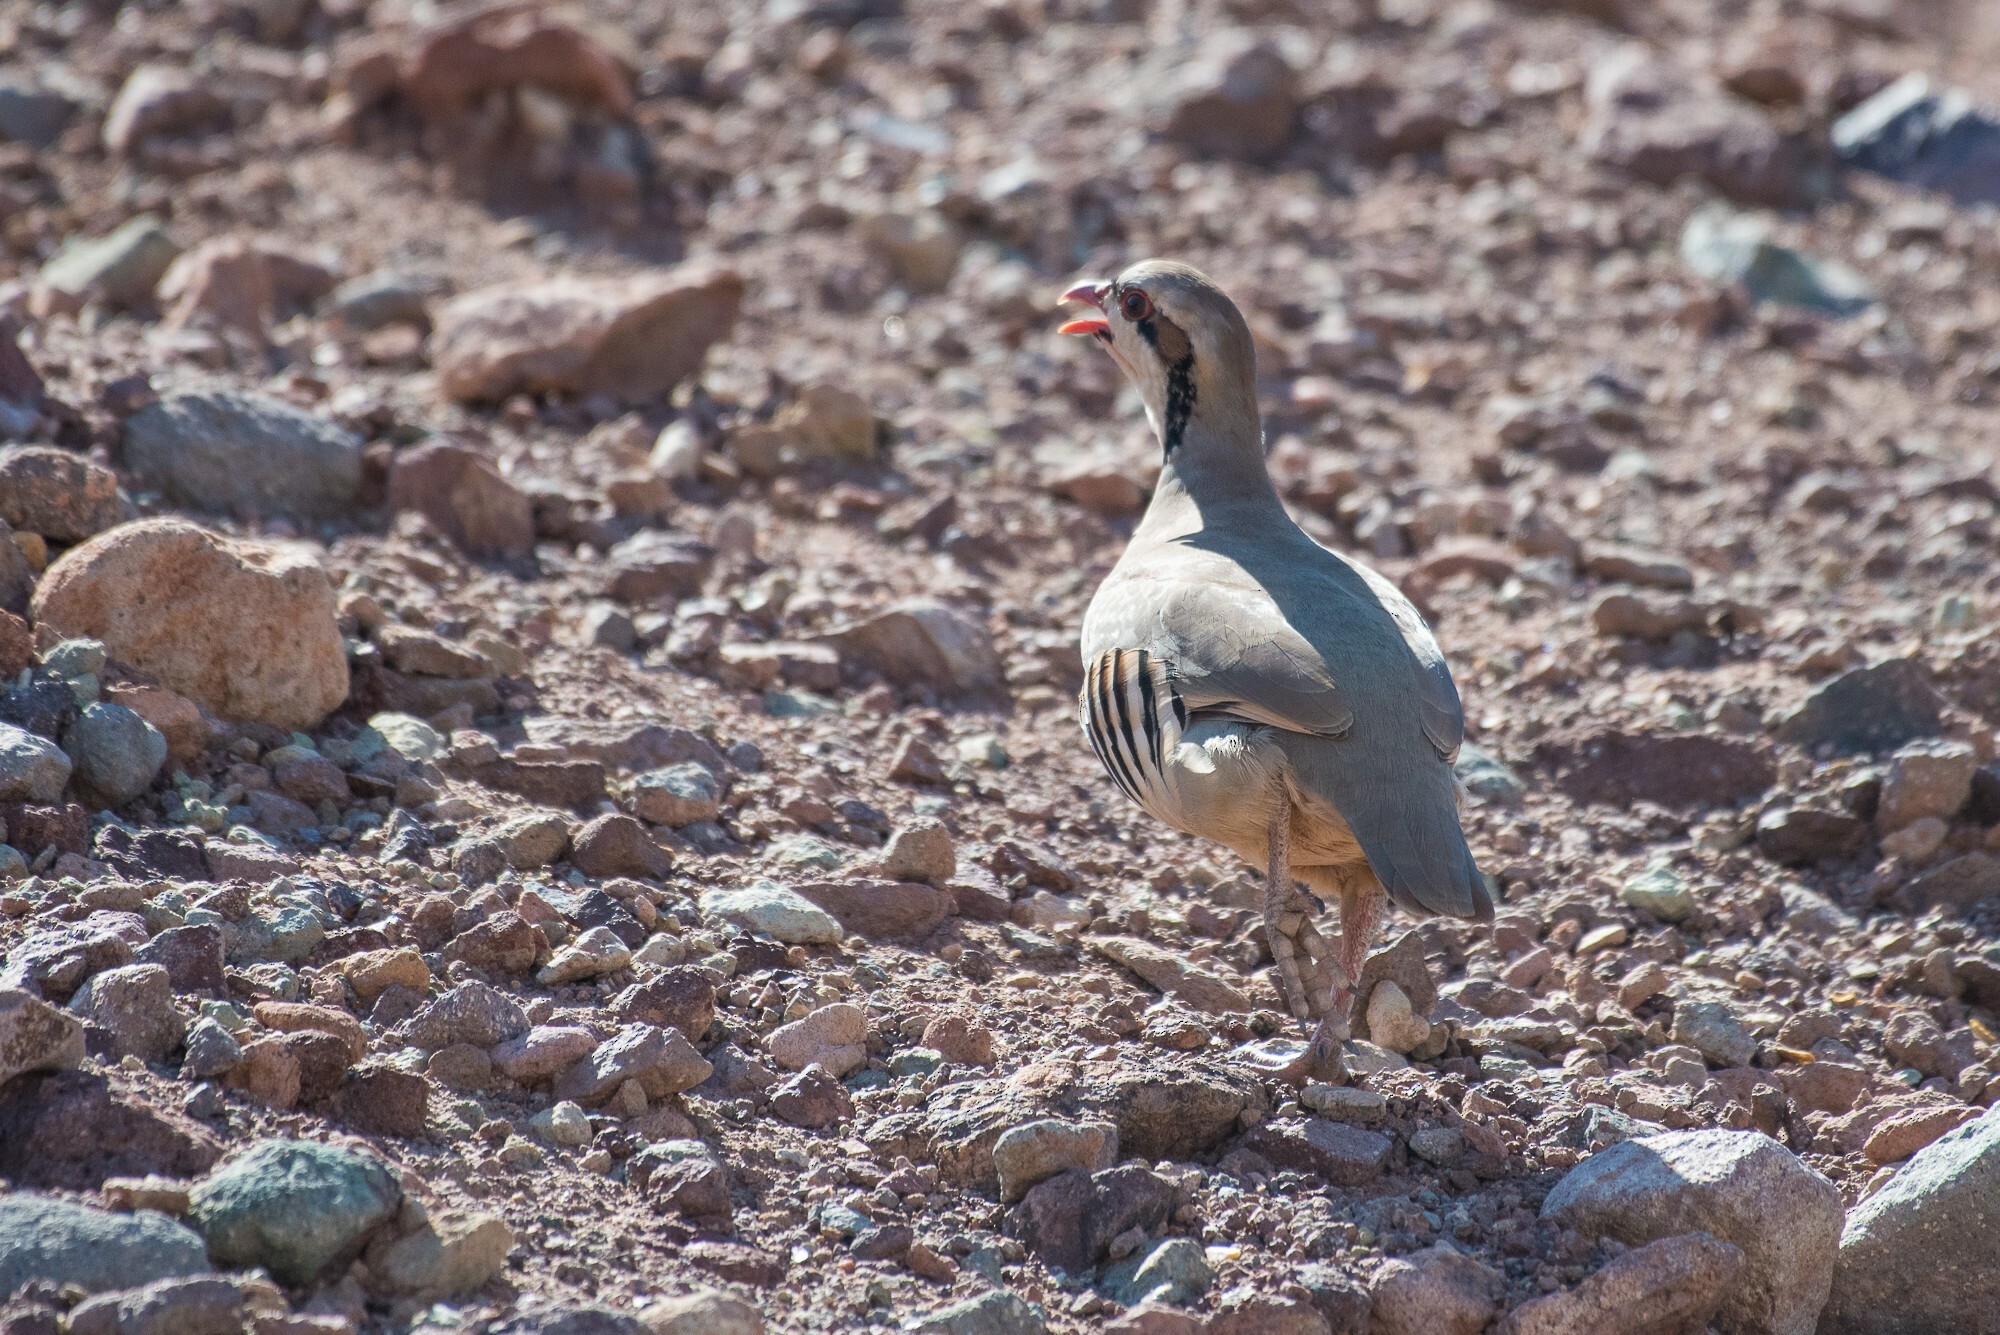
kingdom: Animalia
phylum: Chordata
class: Aves
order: Galliformes
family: Phasianidae
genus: Alectoris
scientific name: Alectoris chukar
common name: Chukar
